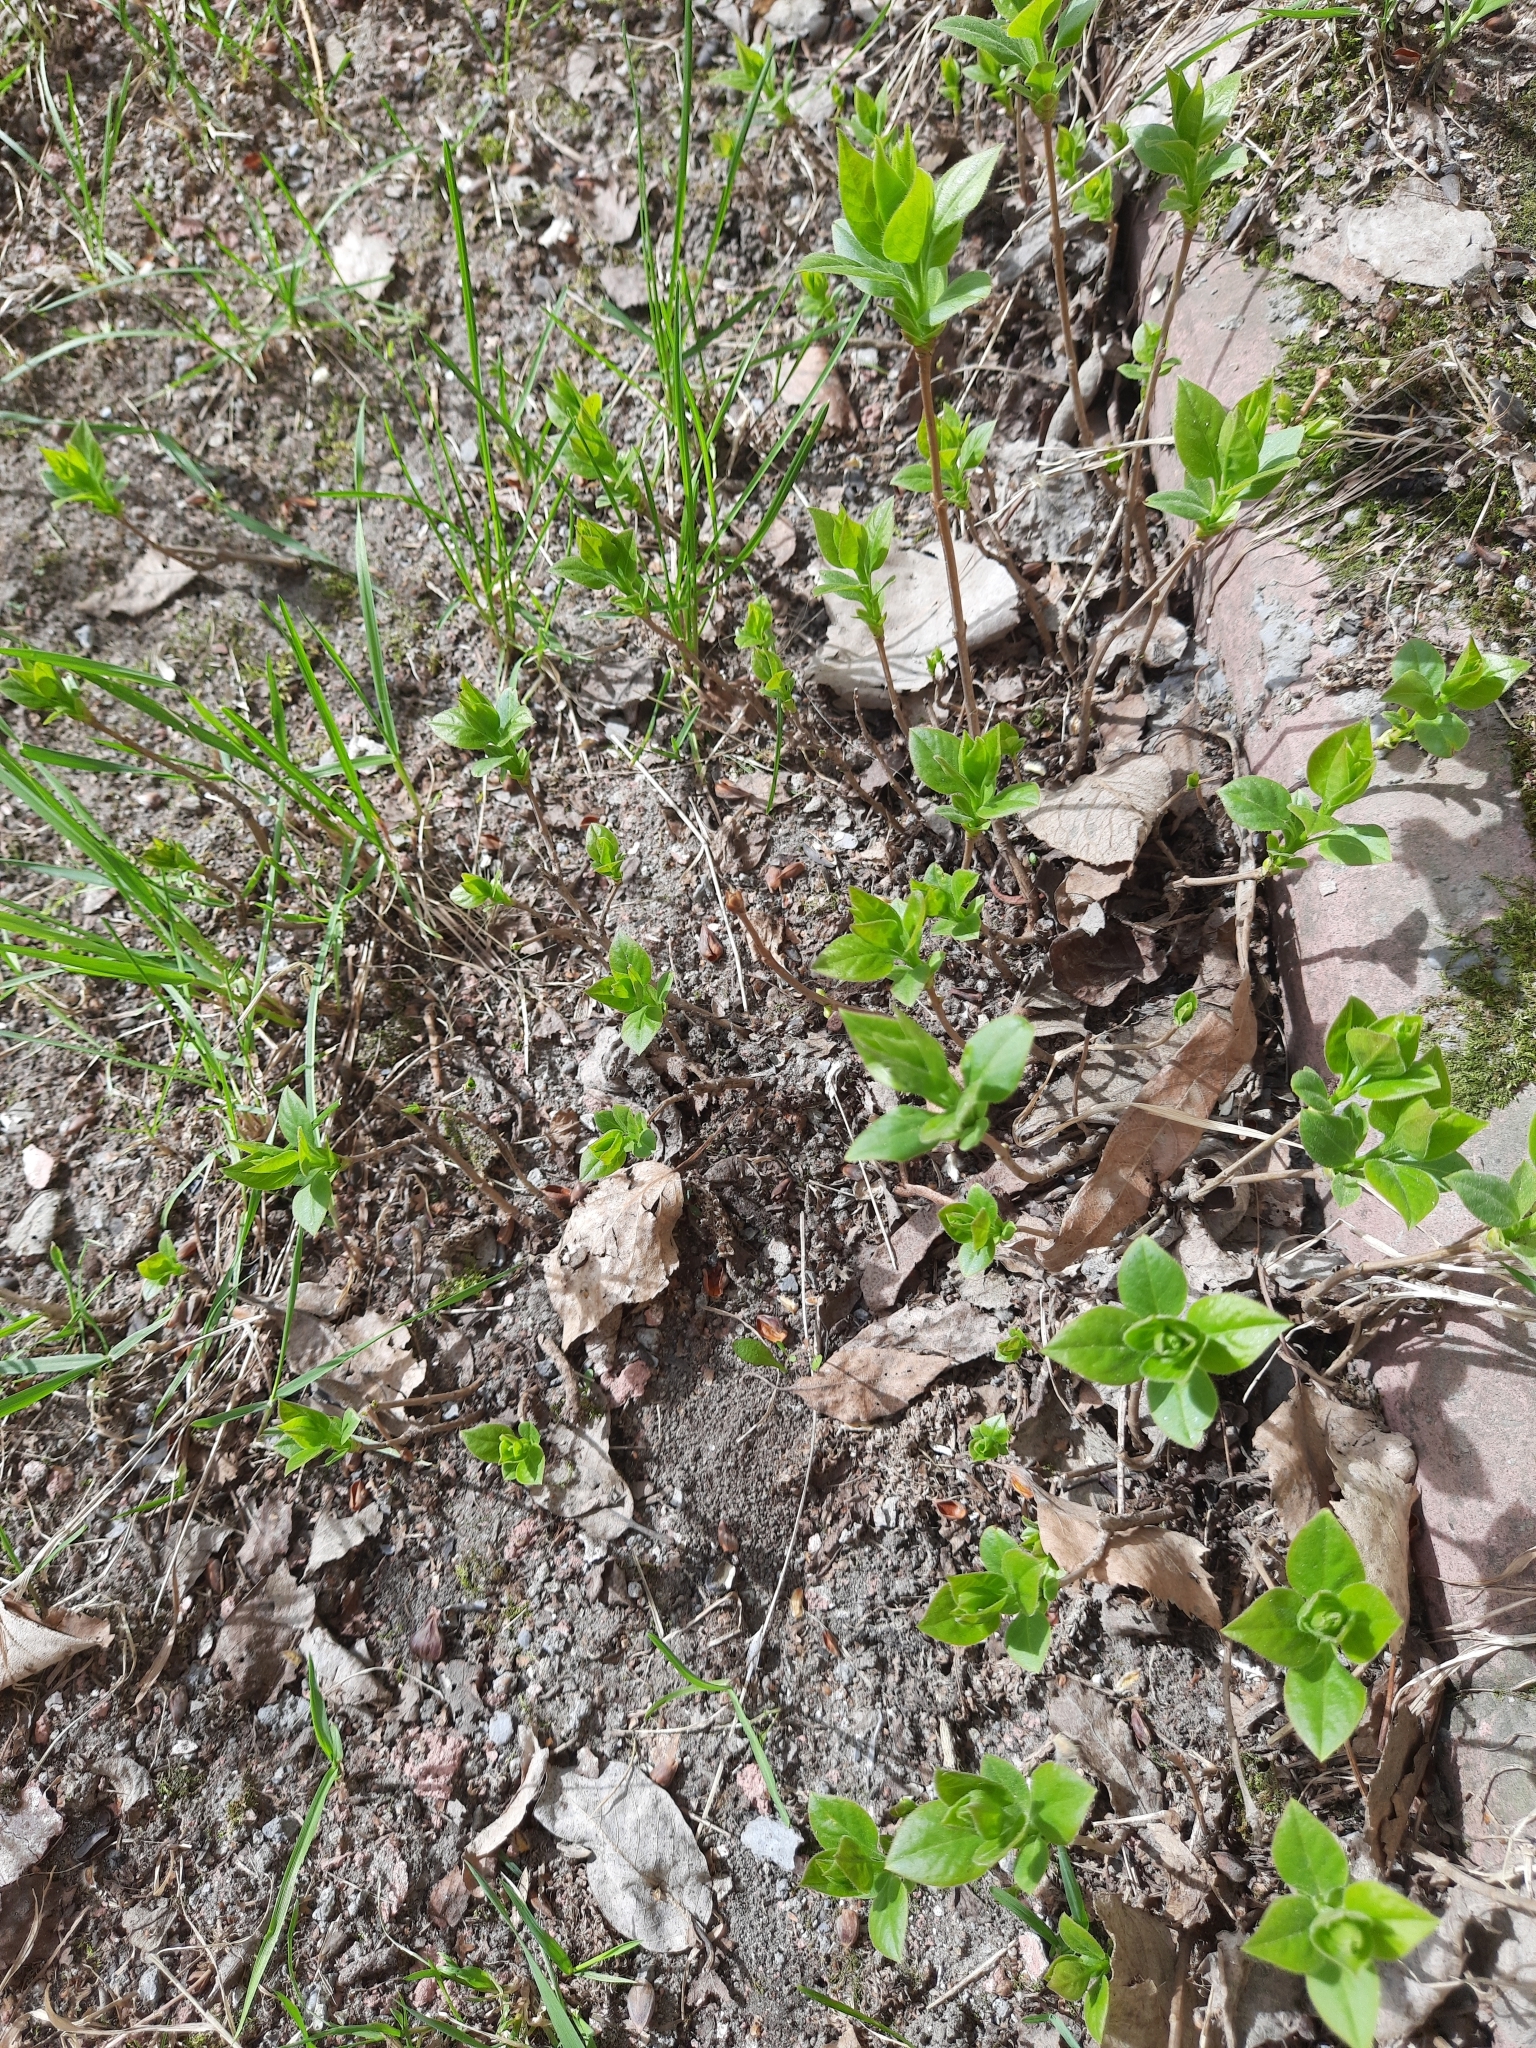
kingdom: Plantae
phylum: Tracheophyta
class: Magnoliopsida
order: Lamiales
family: Oleaceae
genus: Syringa
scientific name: Syringa vulgaris
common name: Common lilac
